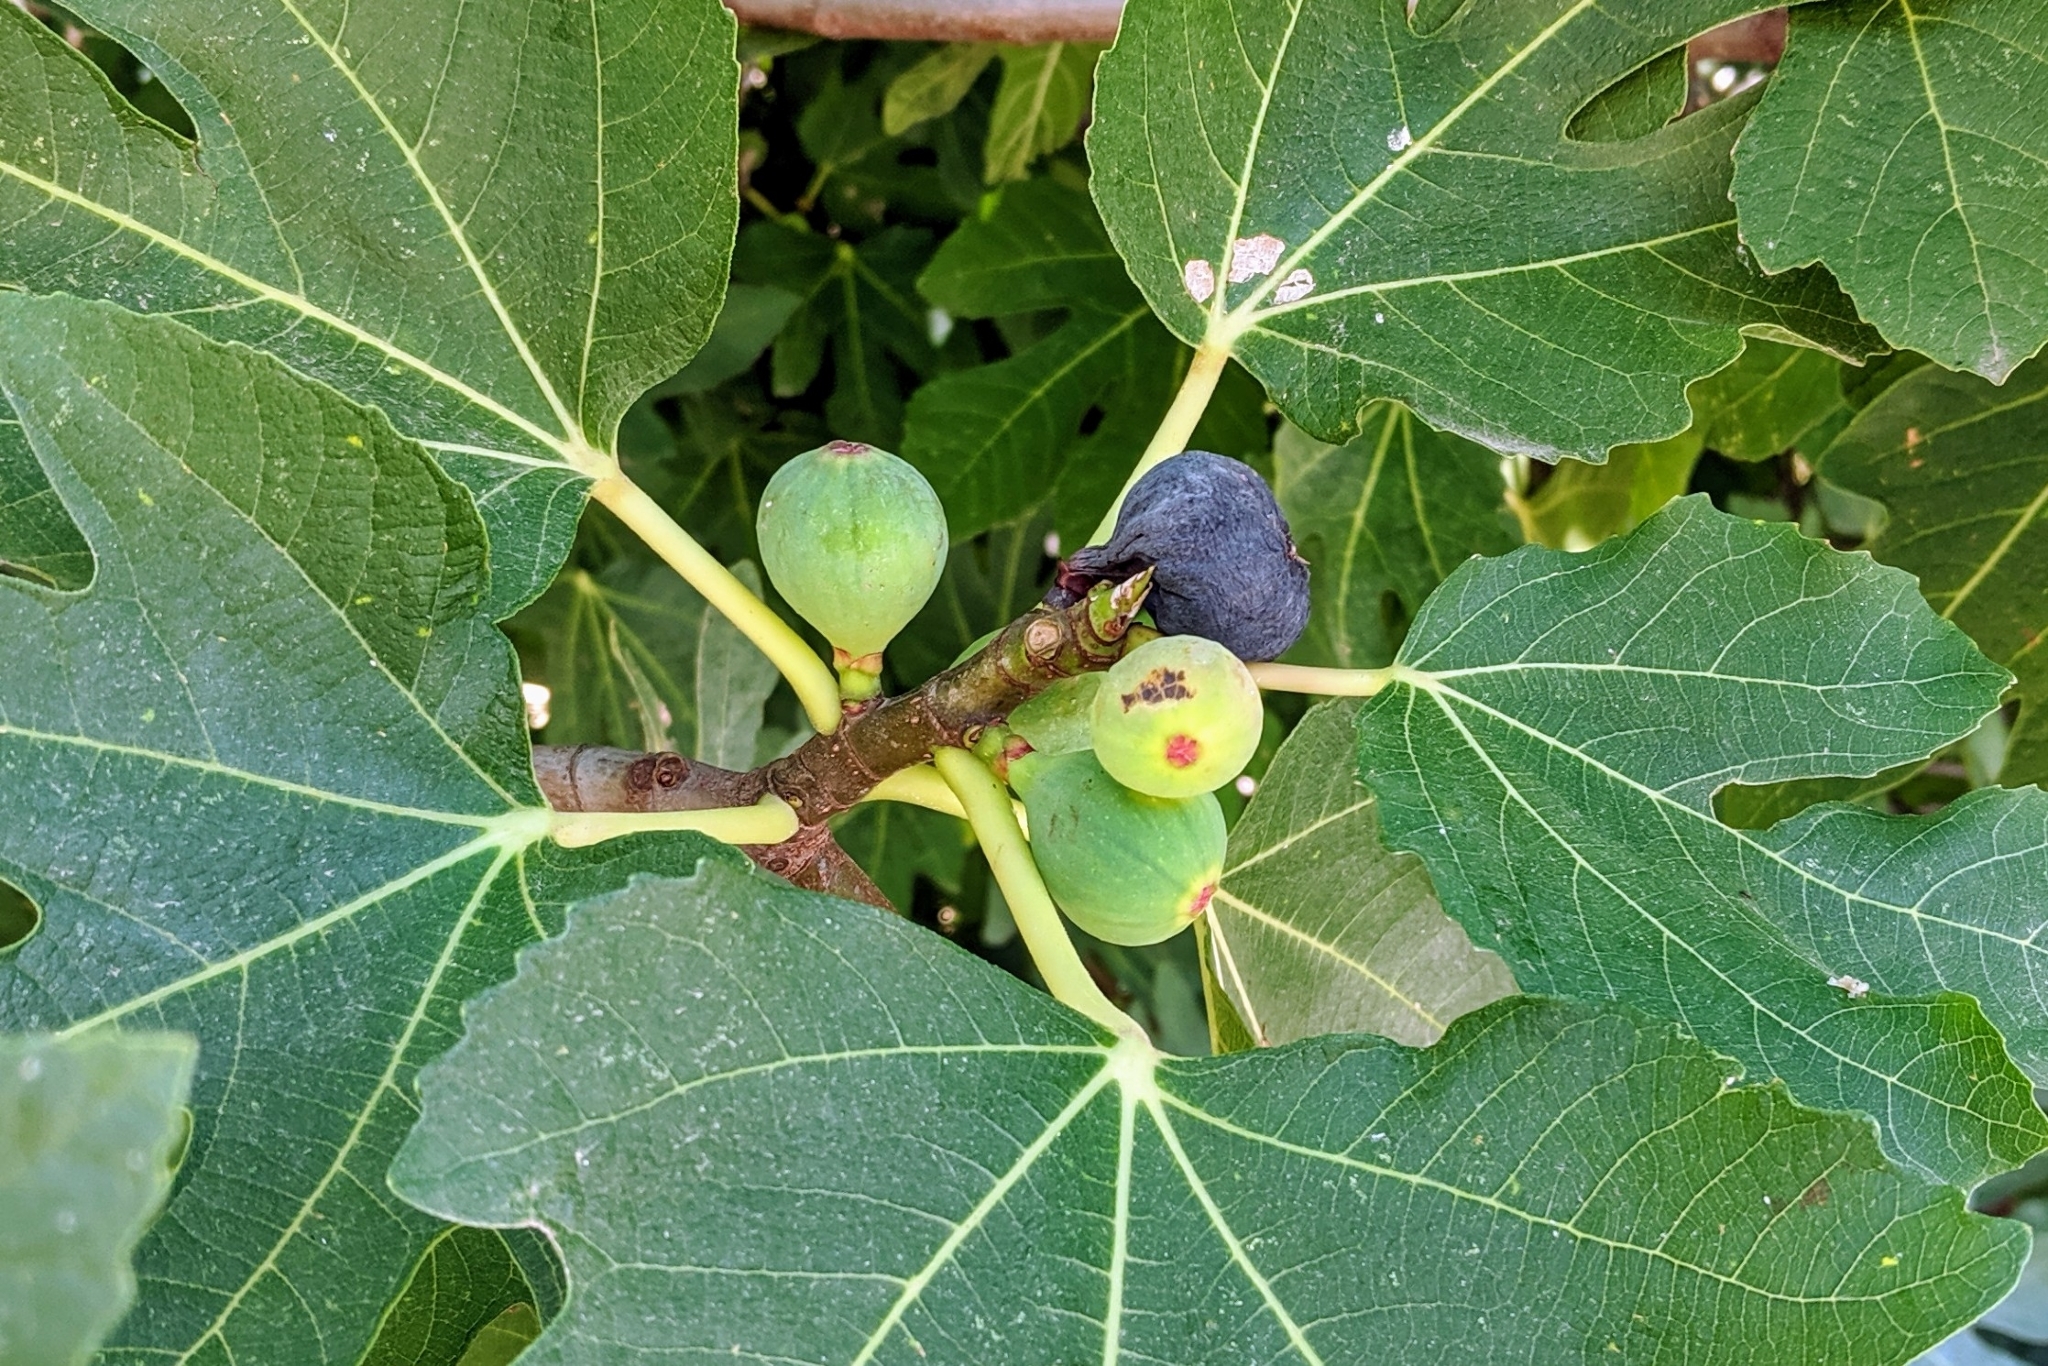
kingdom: Plantae
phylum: Tracheophyta
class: Magnoliopsida
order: Rosales
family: Moraceae
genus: Ficus
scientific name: Ficus carica
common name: Fig
